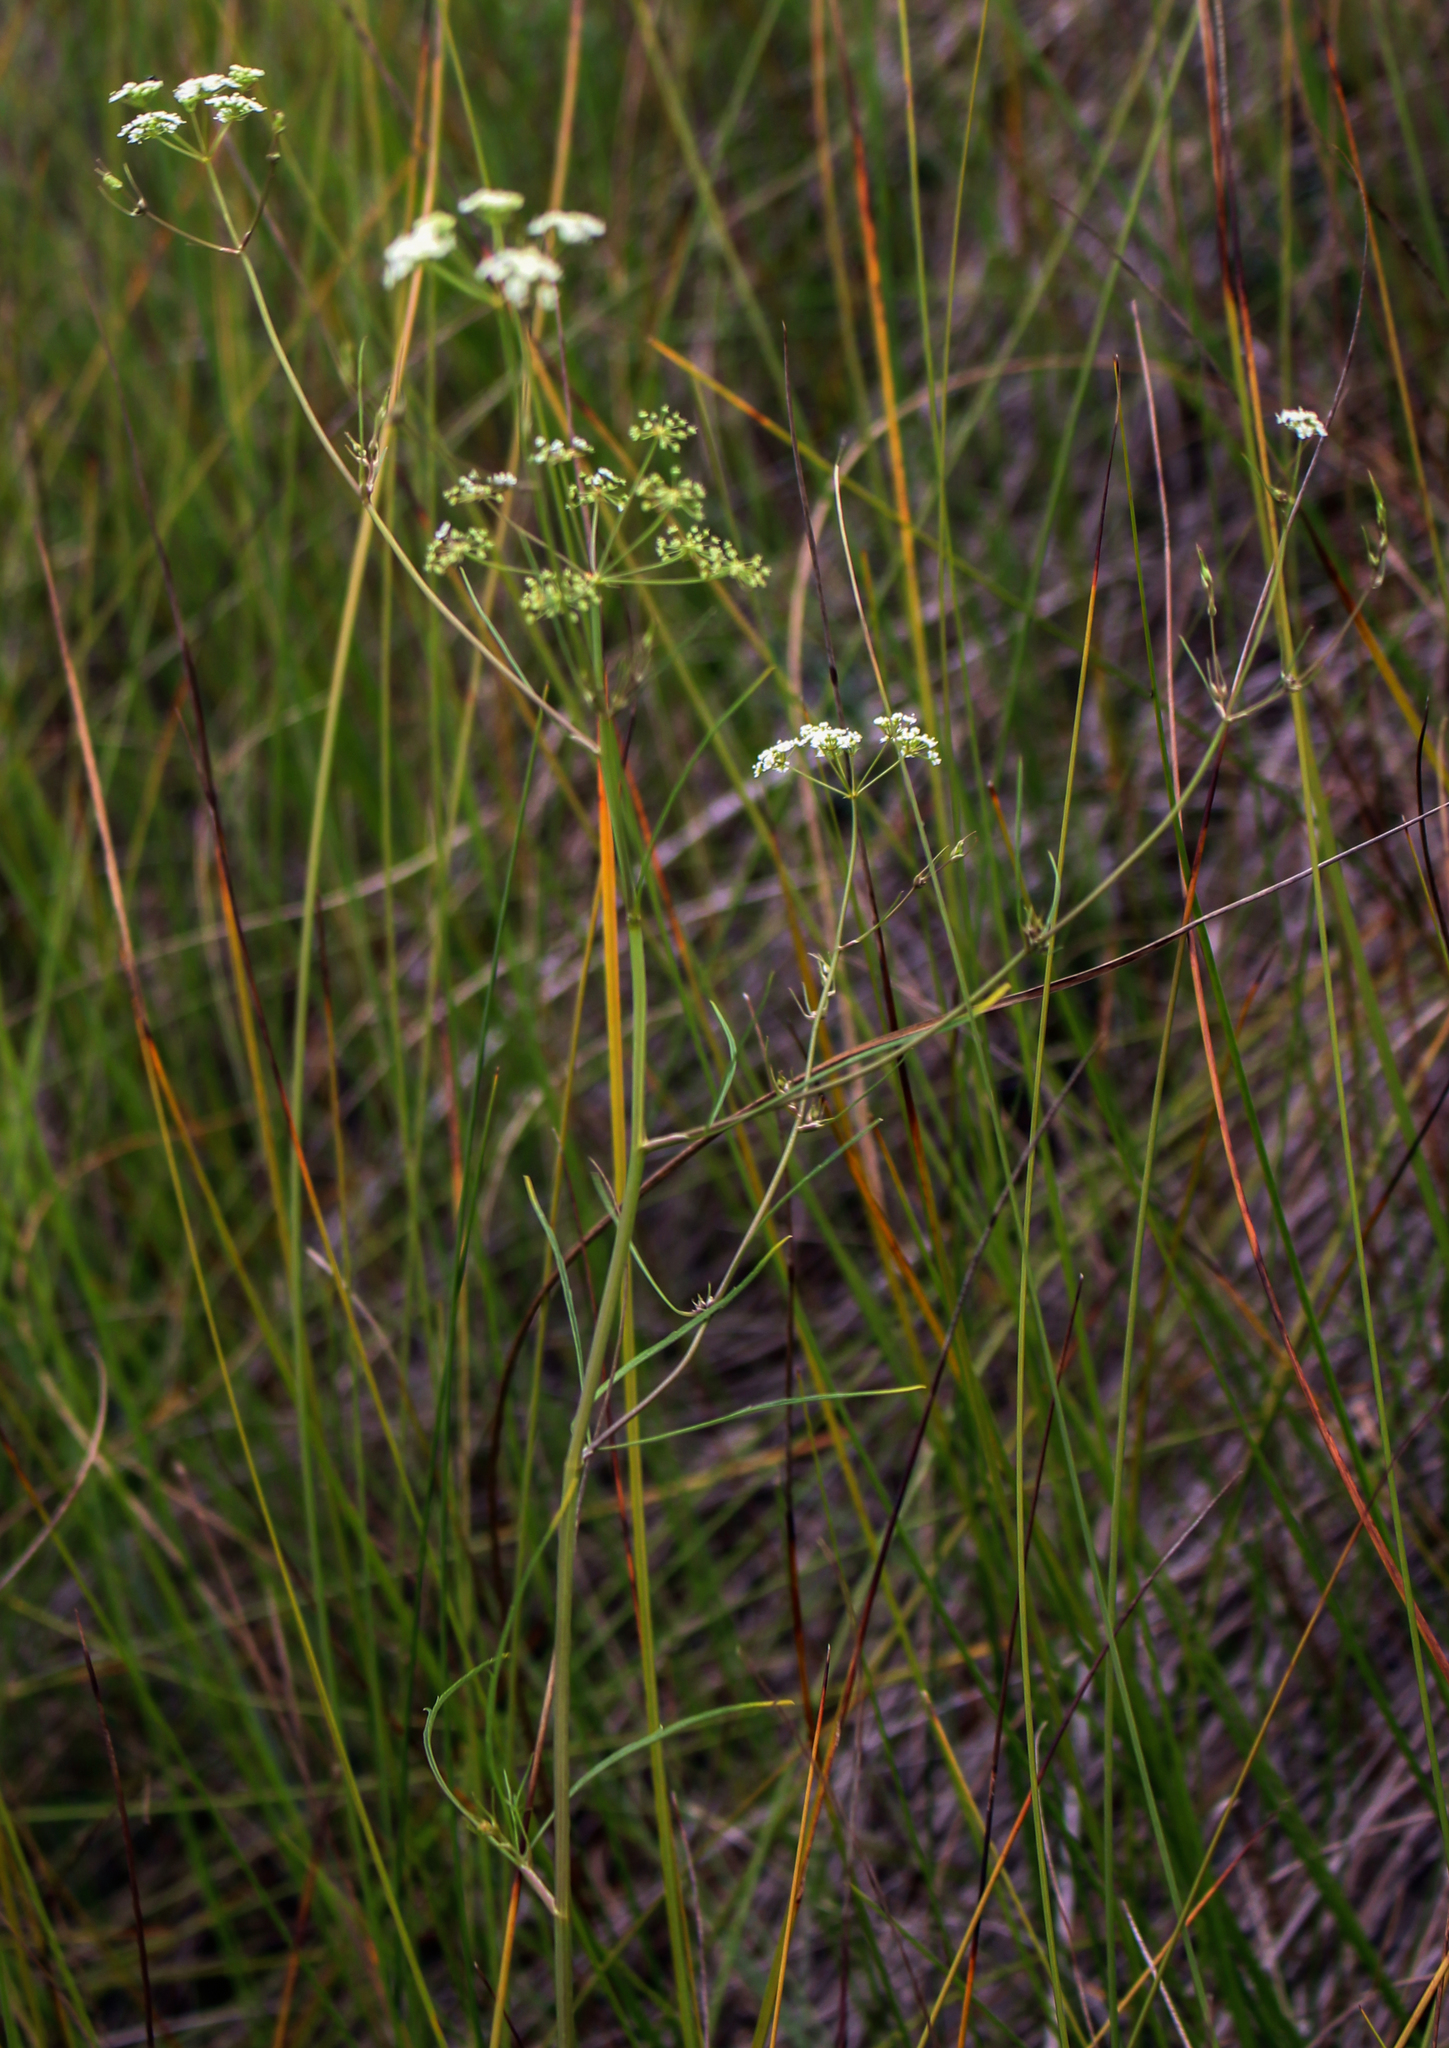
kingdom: Plantae
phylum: Tracheophyta
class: Magnoliopsida
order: Apiales
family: Apiaceae
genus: Cicuta
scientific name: Cicuta bulbifera
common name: Bulb-bearing water-hemlock
